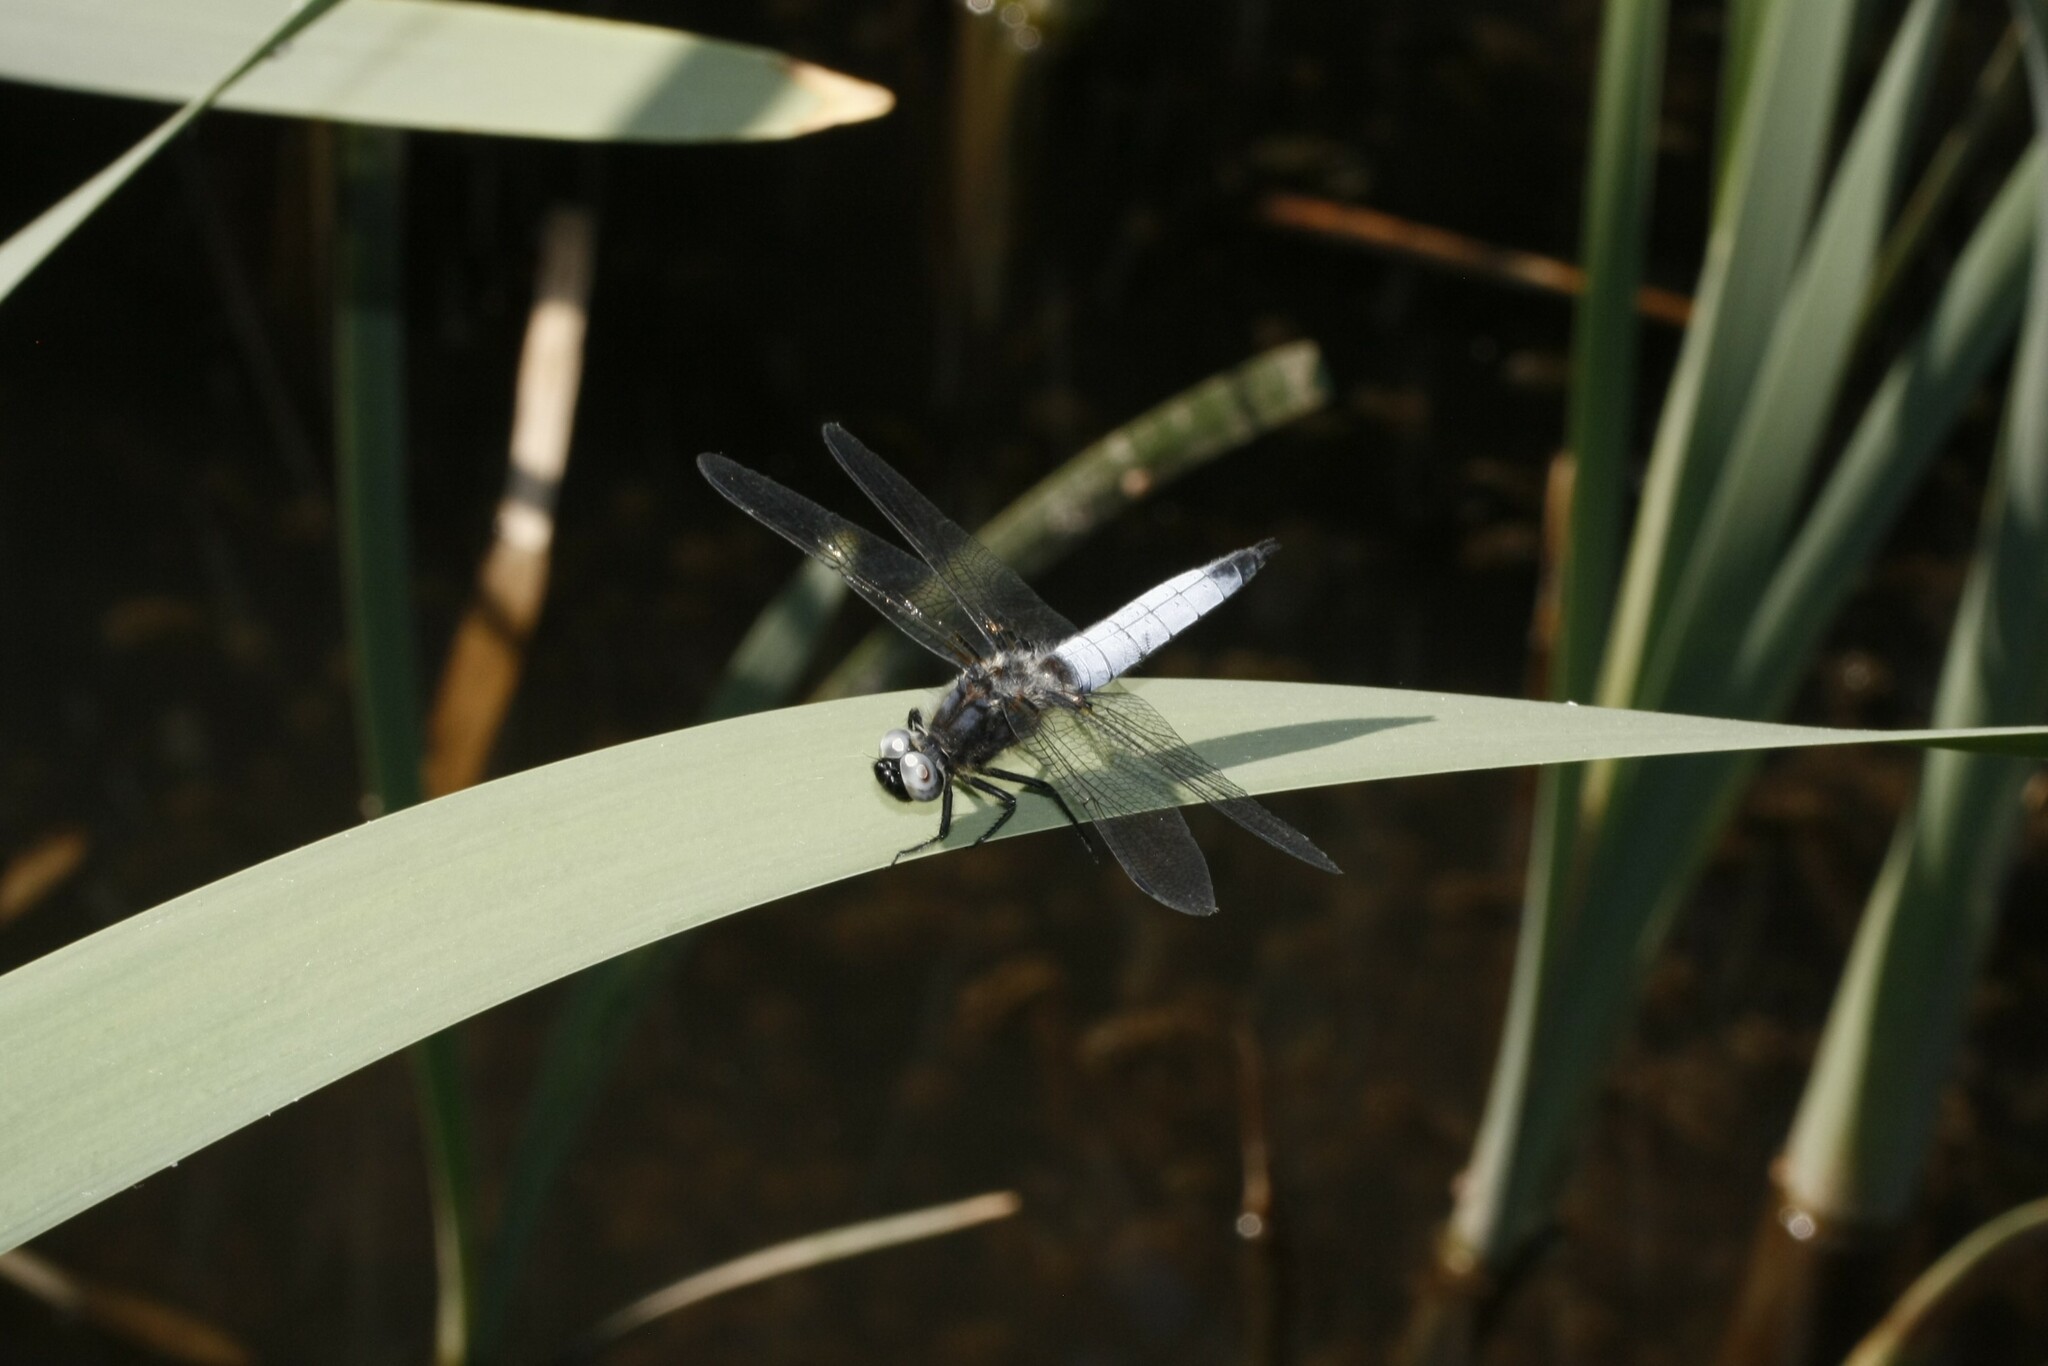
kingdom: Animalia
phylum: Arthropoda
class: Insecta
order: Odonata
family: Libellulidae
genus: Libellula
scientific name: Libellula fulva
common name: Blue chaser
